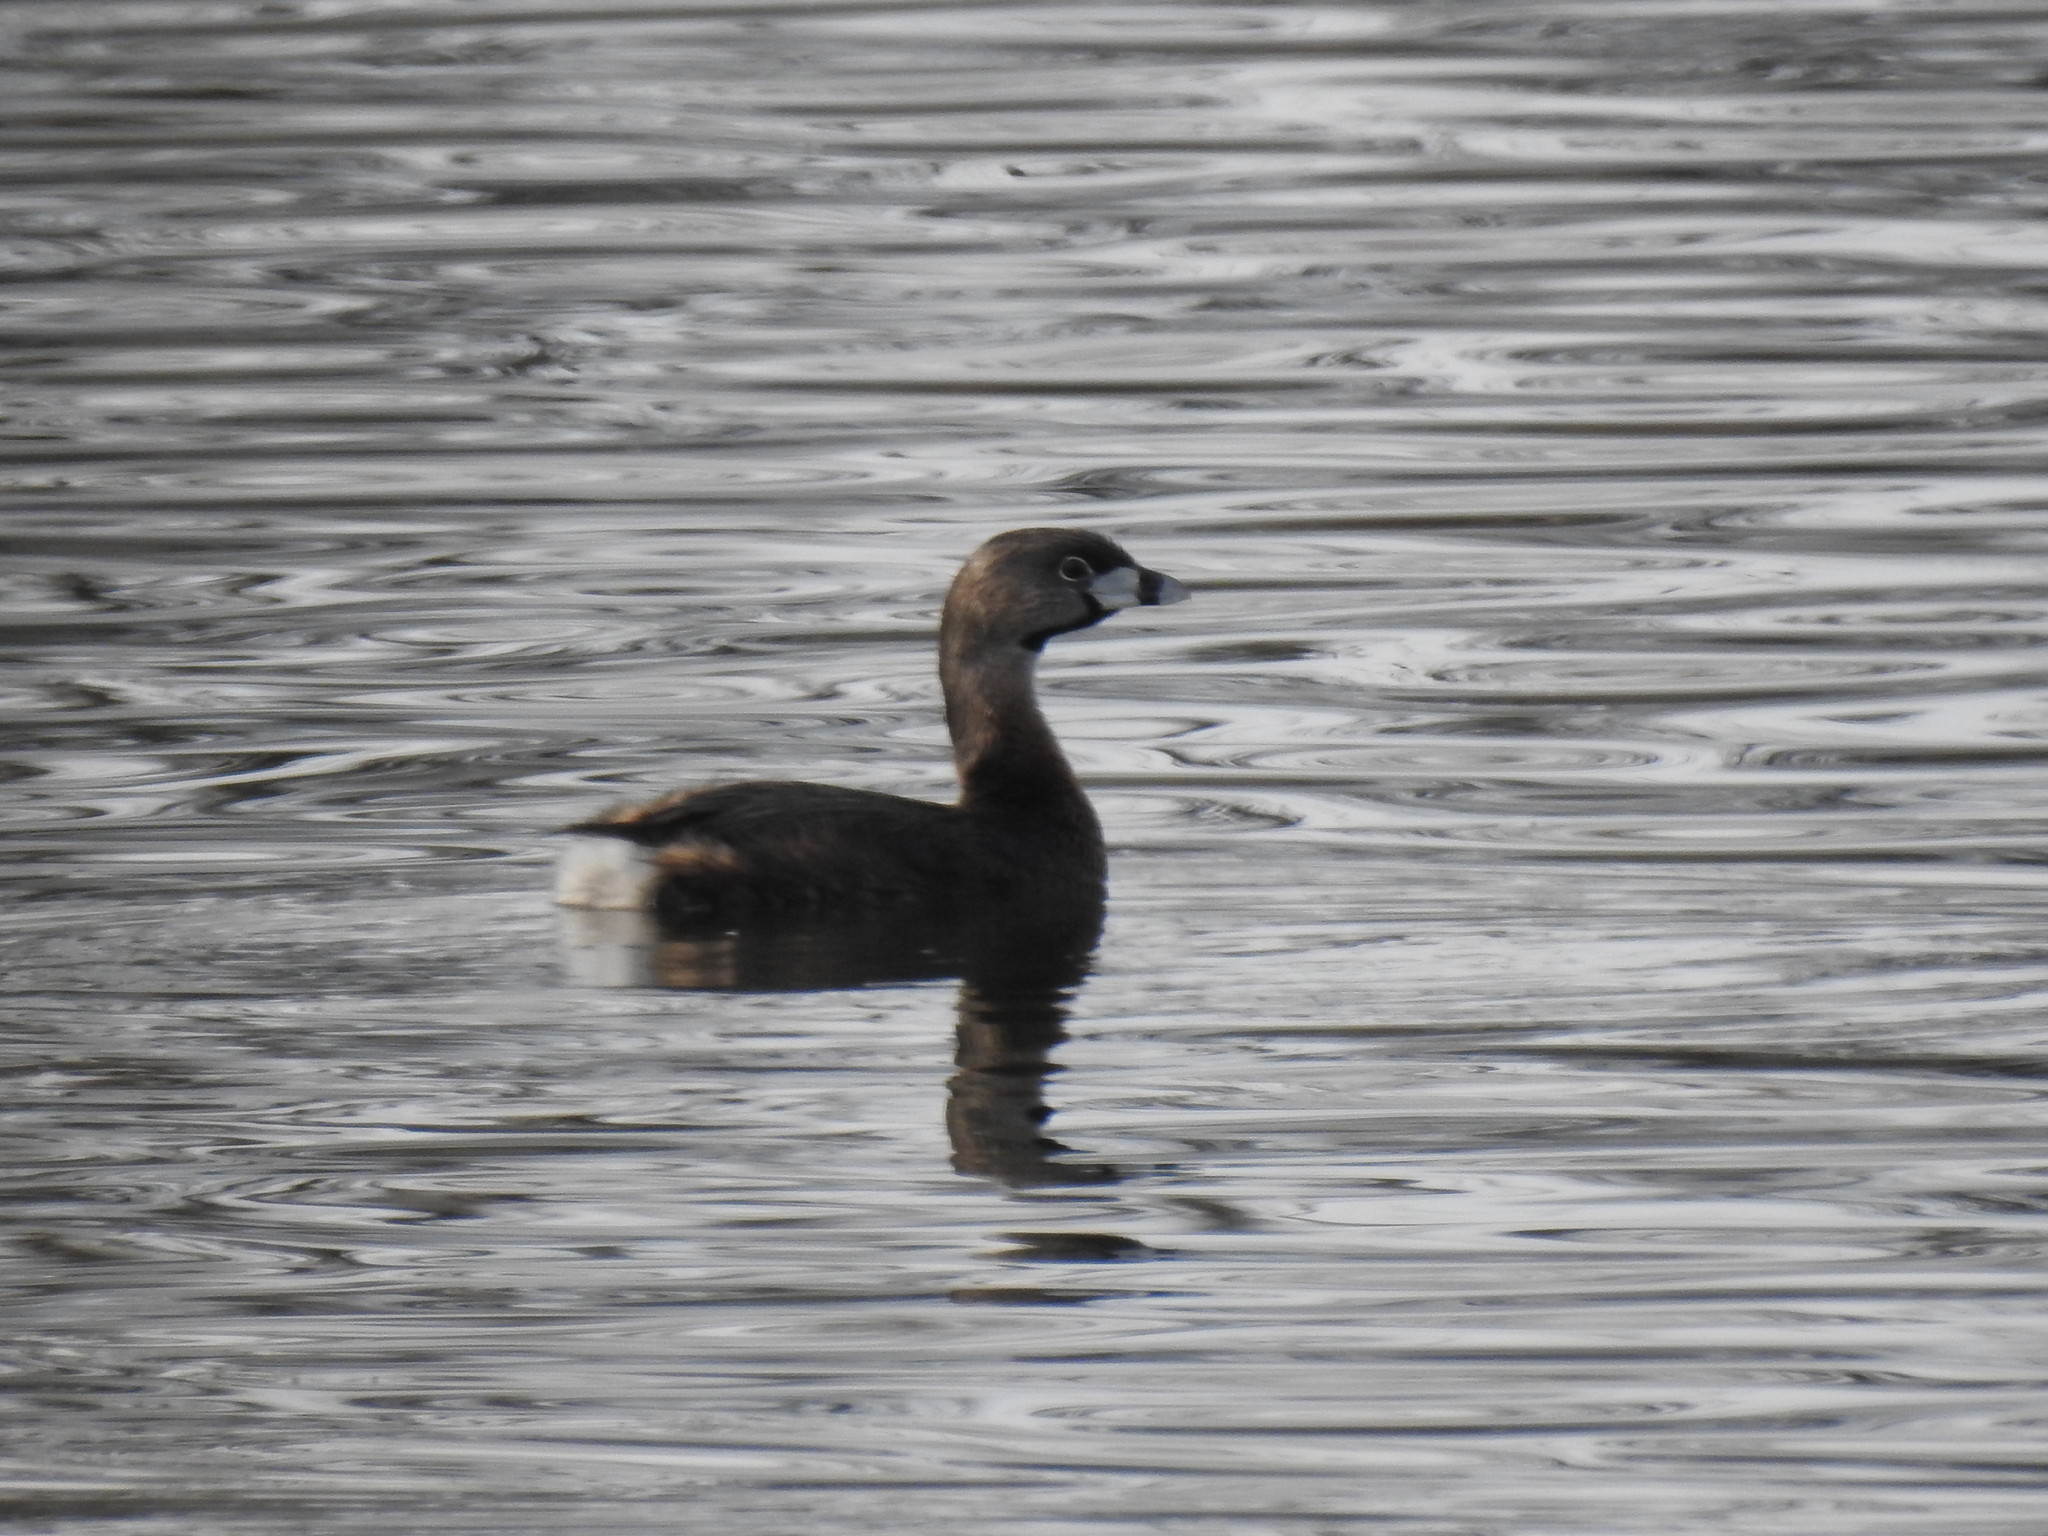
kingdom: Animalia
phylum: Chordata
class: Aves
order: Podicipediformes
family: Podicipedidae
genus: Podilymbus
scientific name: Podilymbus podiceps
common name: Pied-billed grebe
